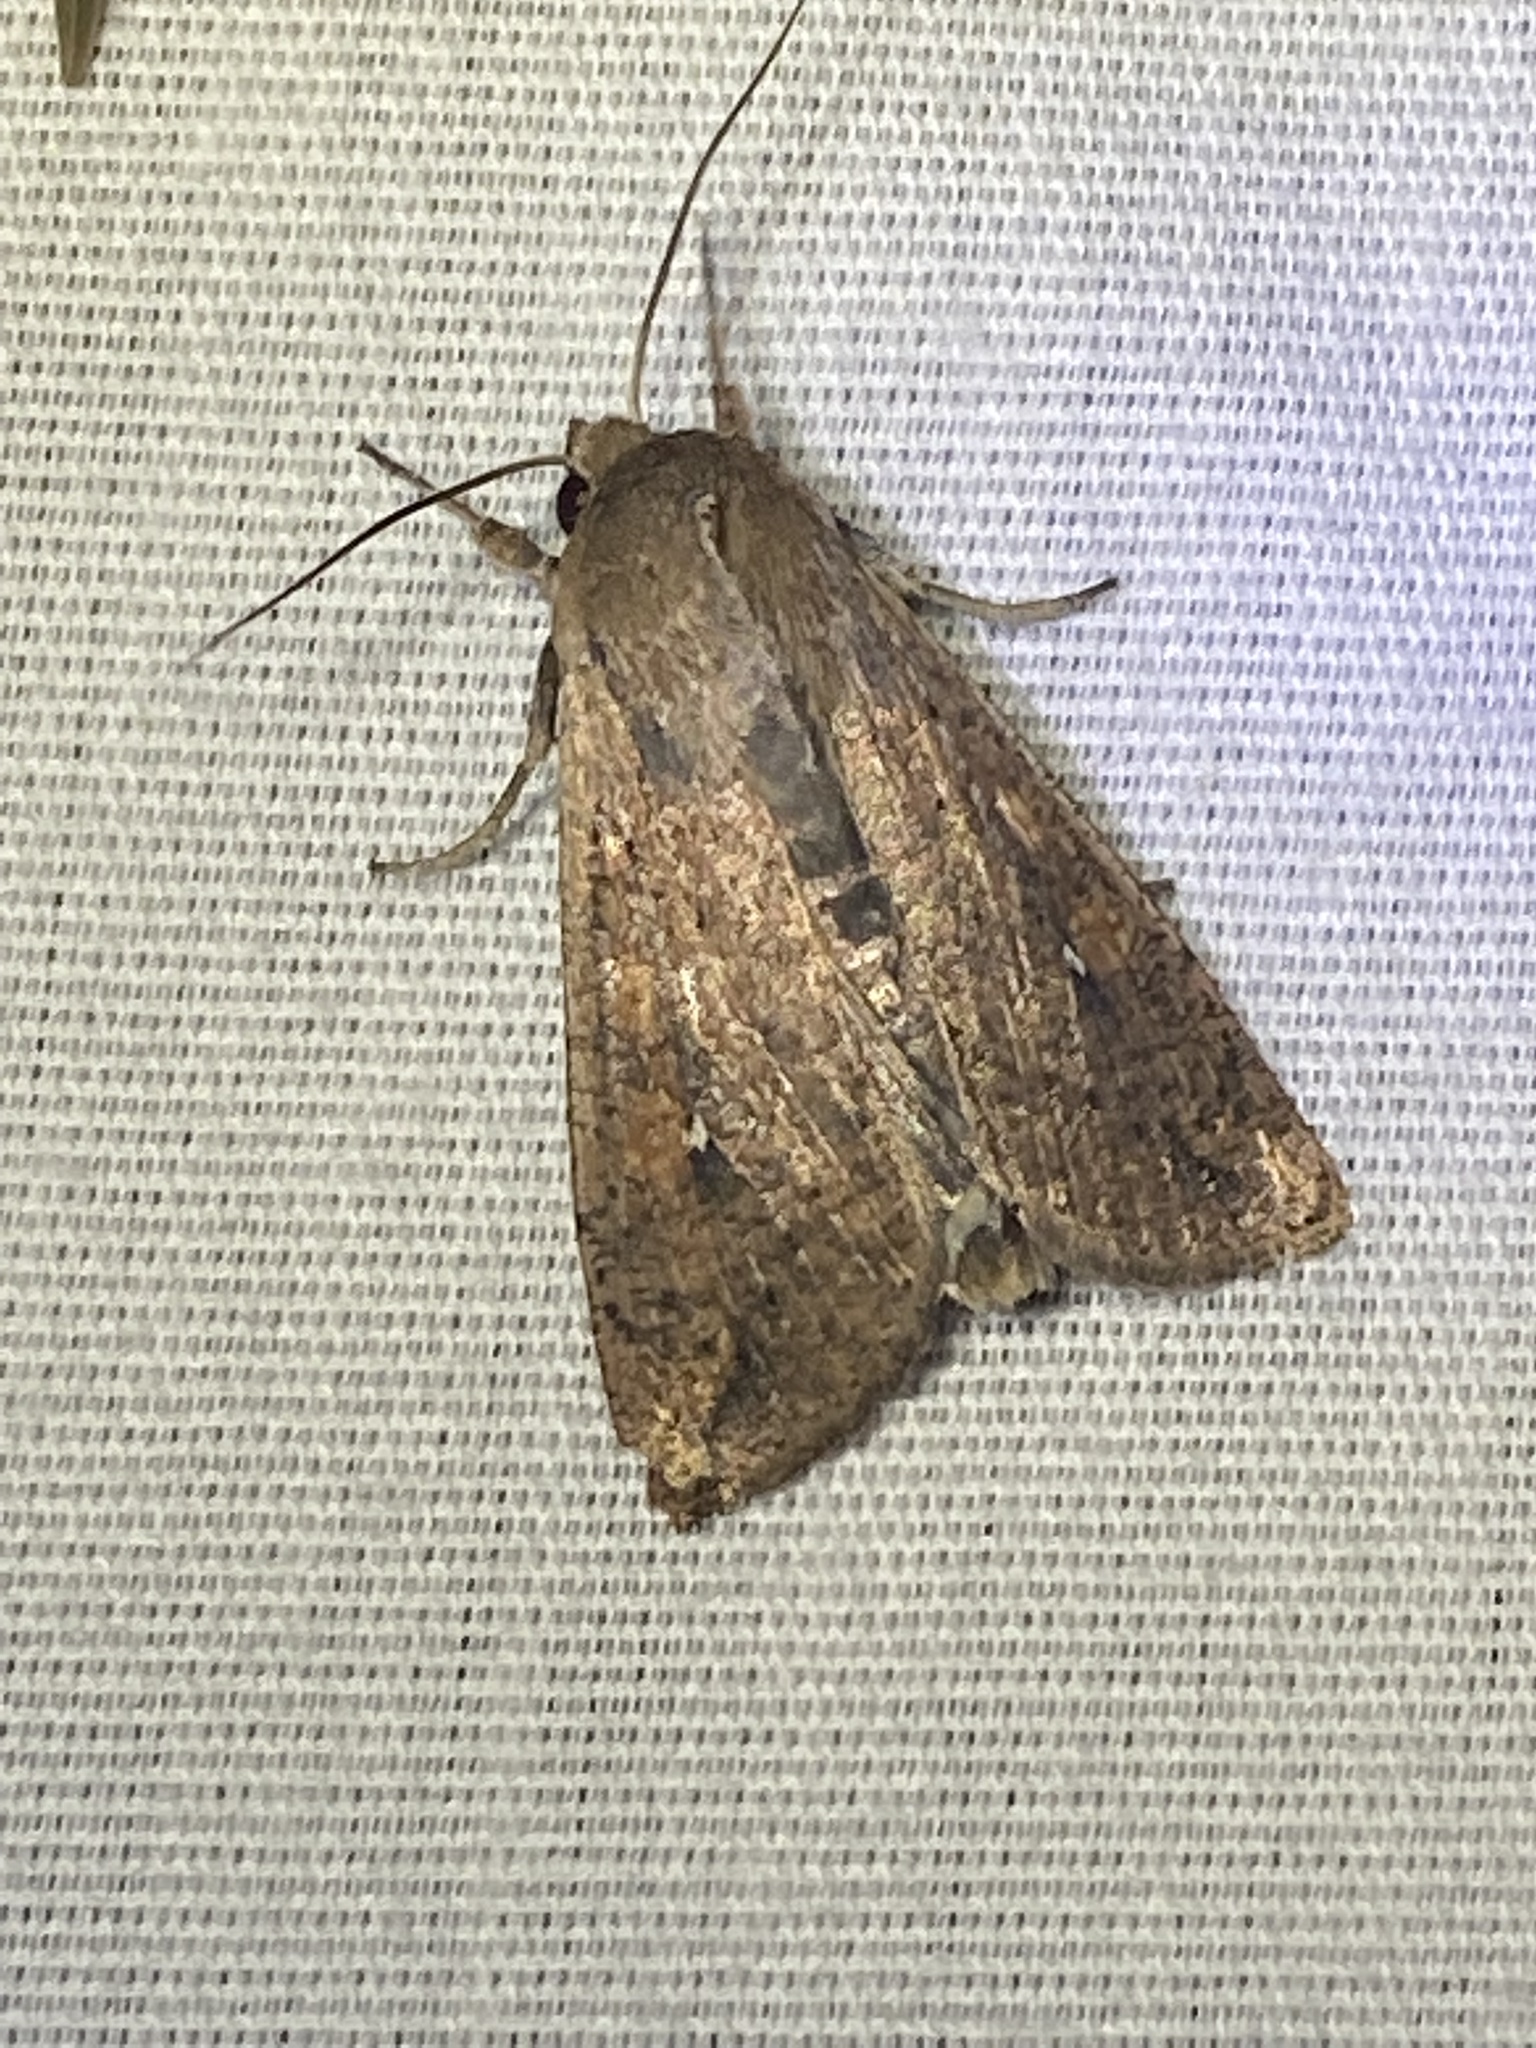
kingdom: Animalia
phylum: Arthropoda
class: Insecta
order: Lepidoptera
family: Noctuidae
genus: Mythimna
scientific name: Mythimna unipuncta
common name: White-speck
